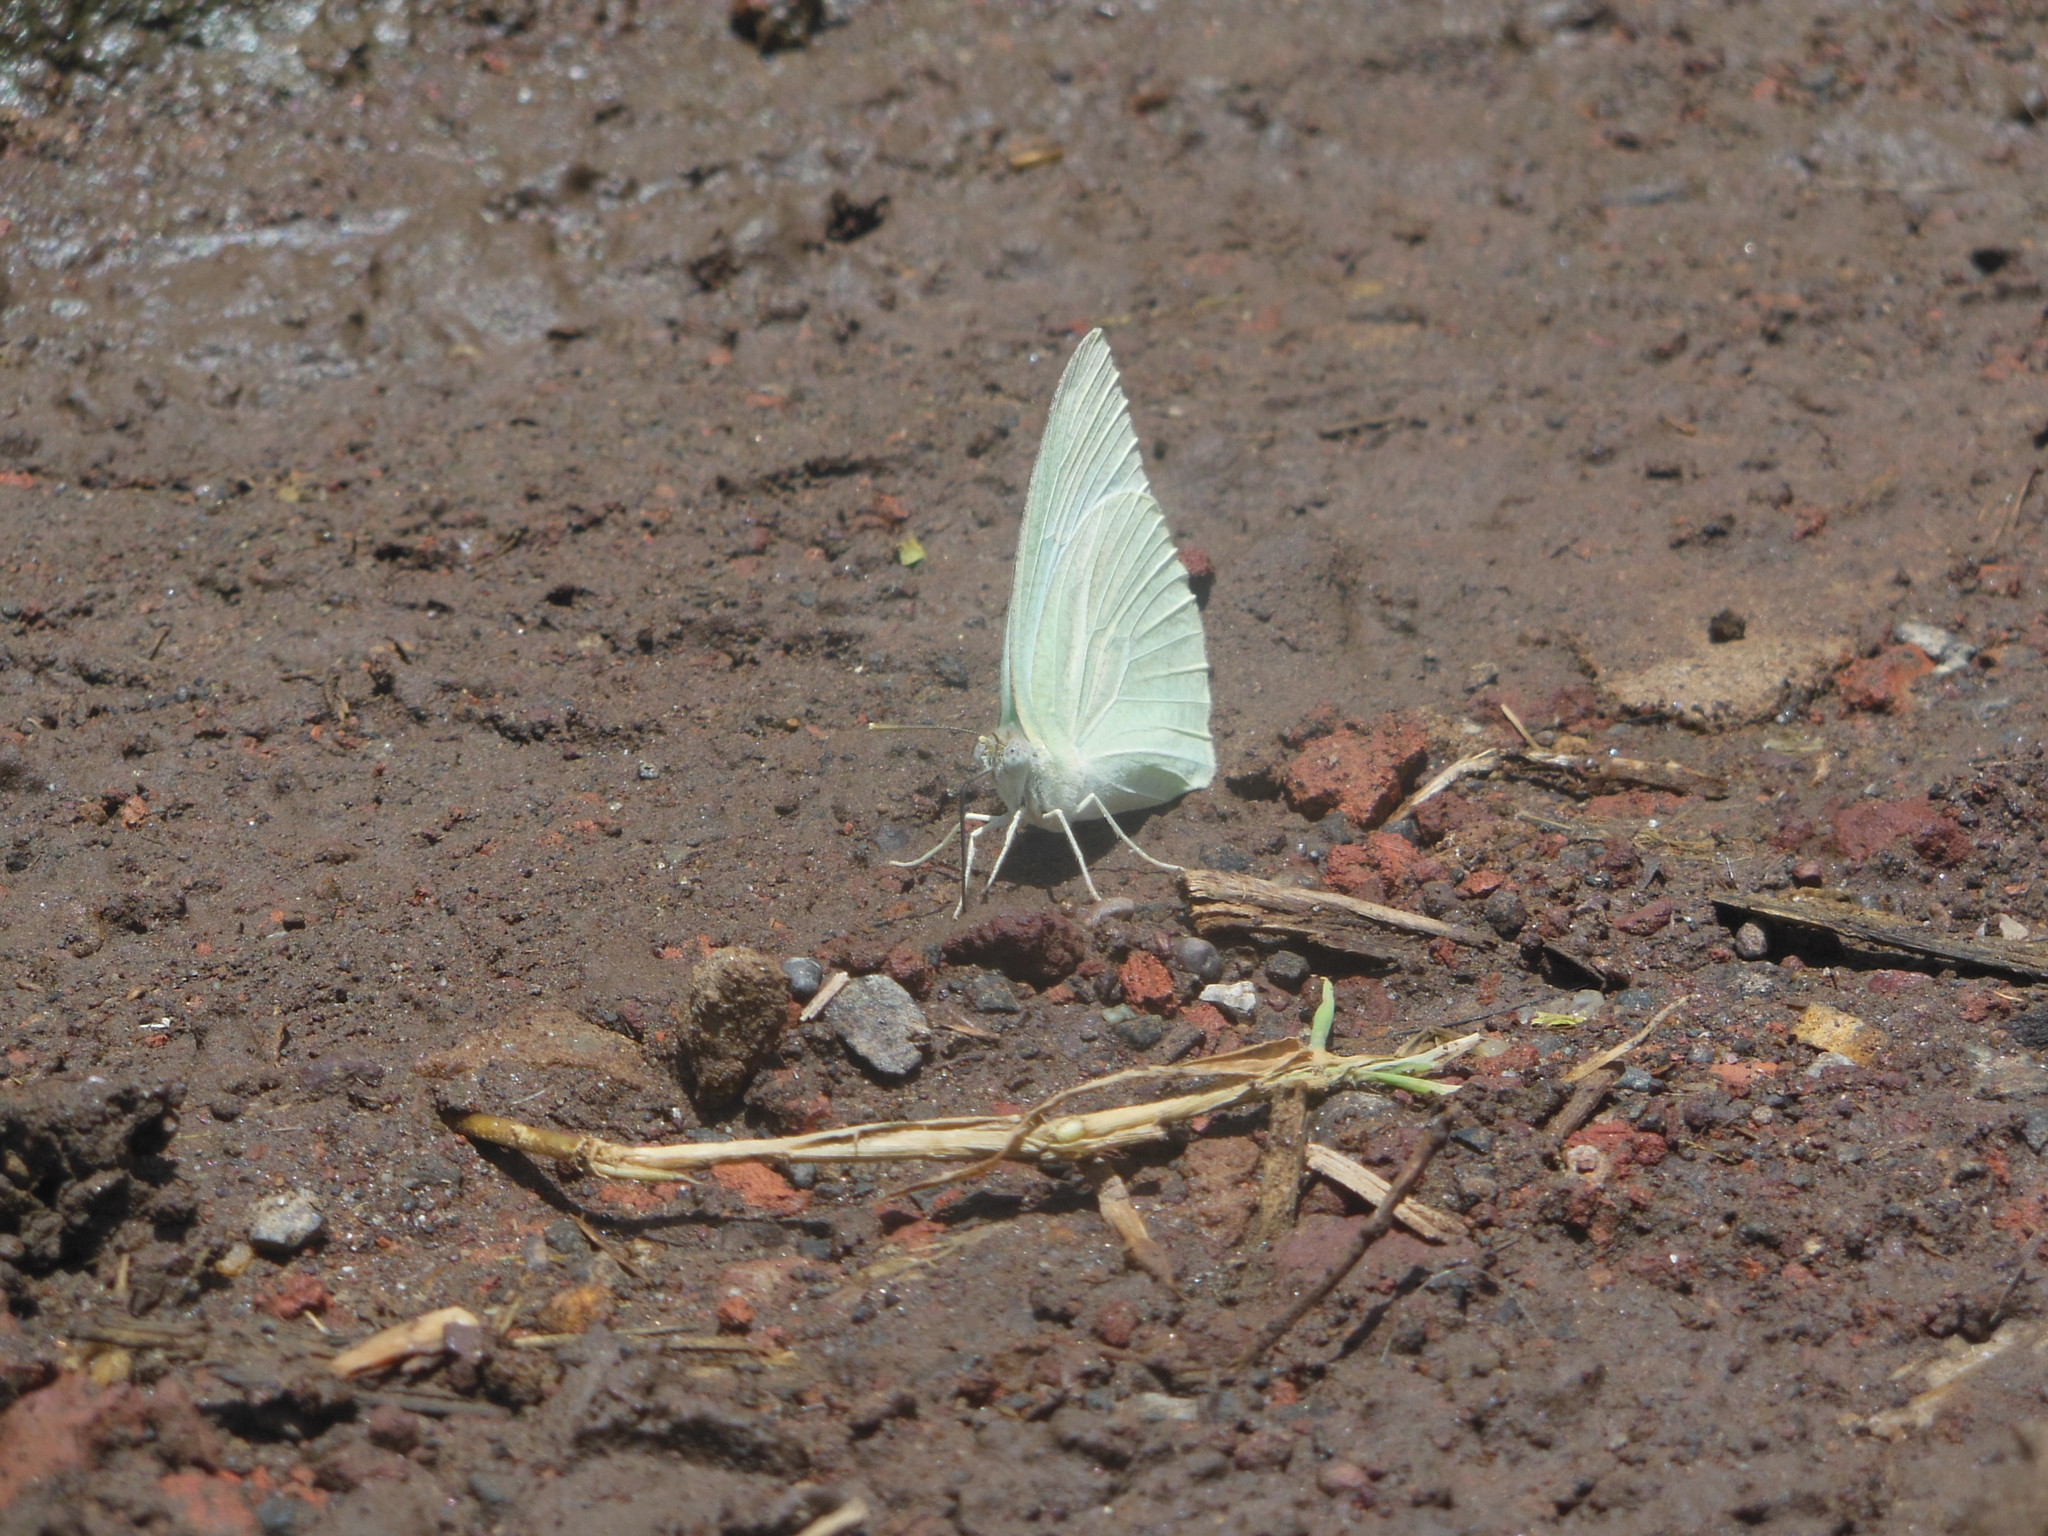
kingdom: Animalia
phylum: Arthropoda
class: Insecta
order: Lepidoptera
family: Pieridae
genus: Catopsilia
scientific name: Catopsilia pyranthe
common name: Mottled emigrant
